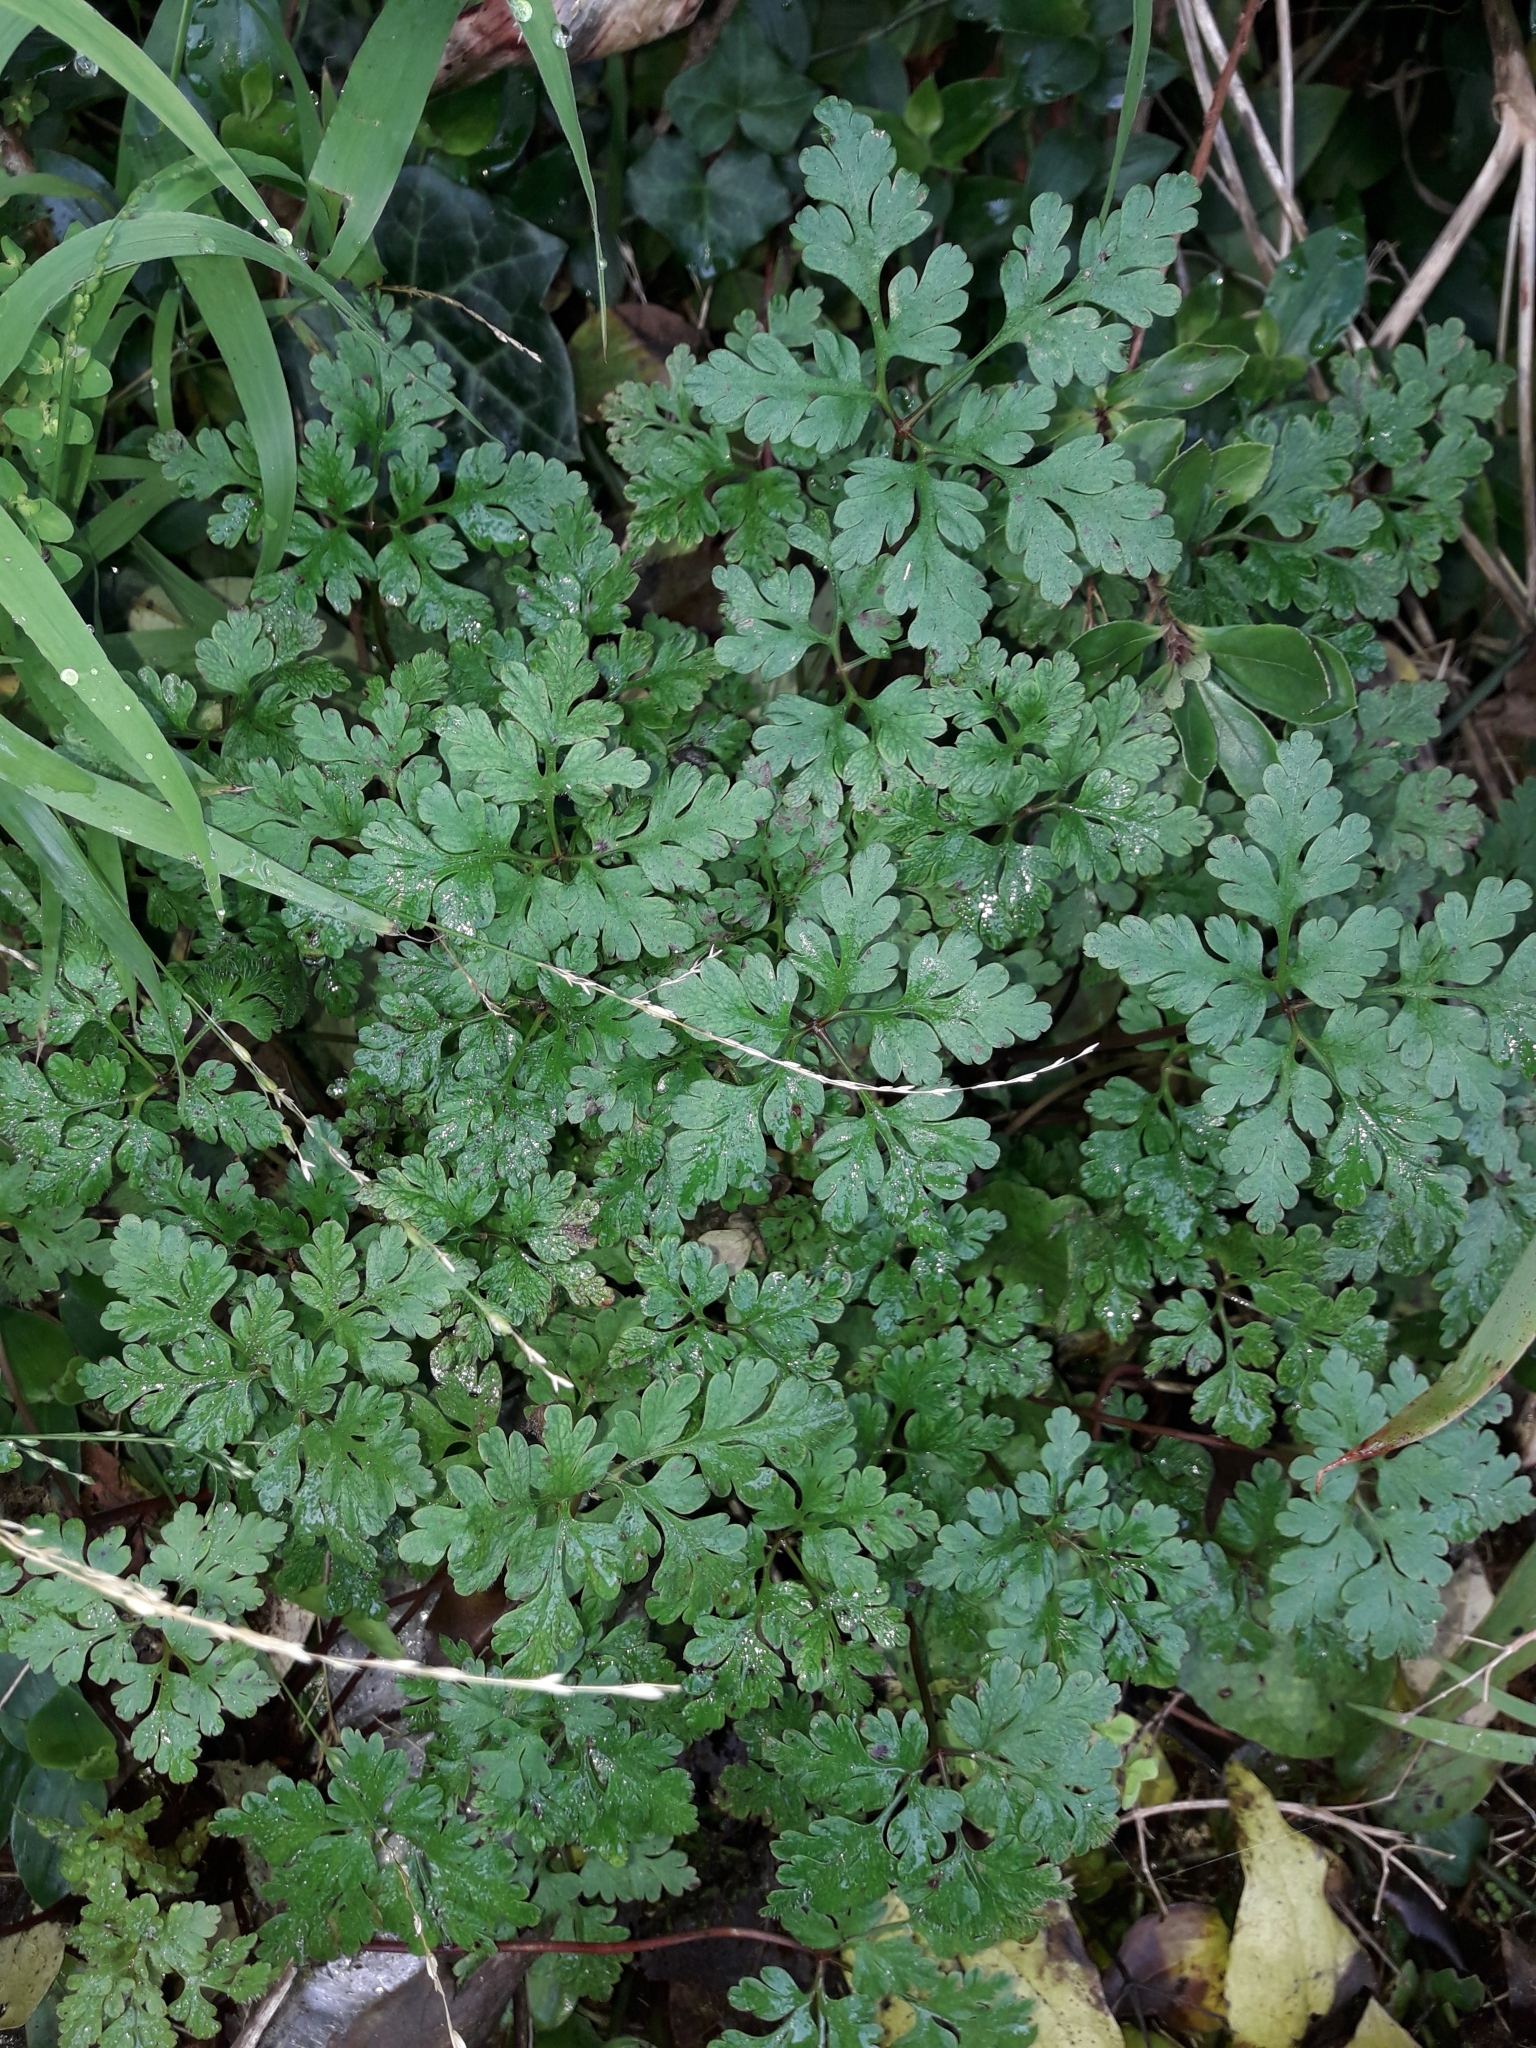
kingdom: Plantae
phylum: Tracheophyta
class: Magnoliopsida
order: Geraniales
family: Geraniaceae
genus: Geranium
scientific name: Geranium robertianum
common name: Herb-robert
